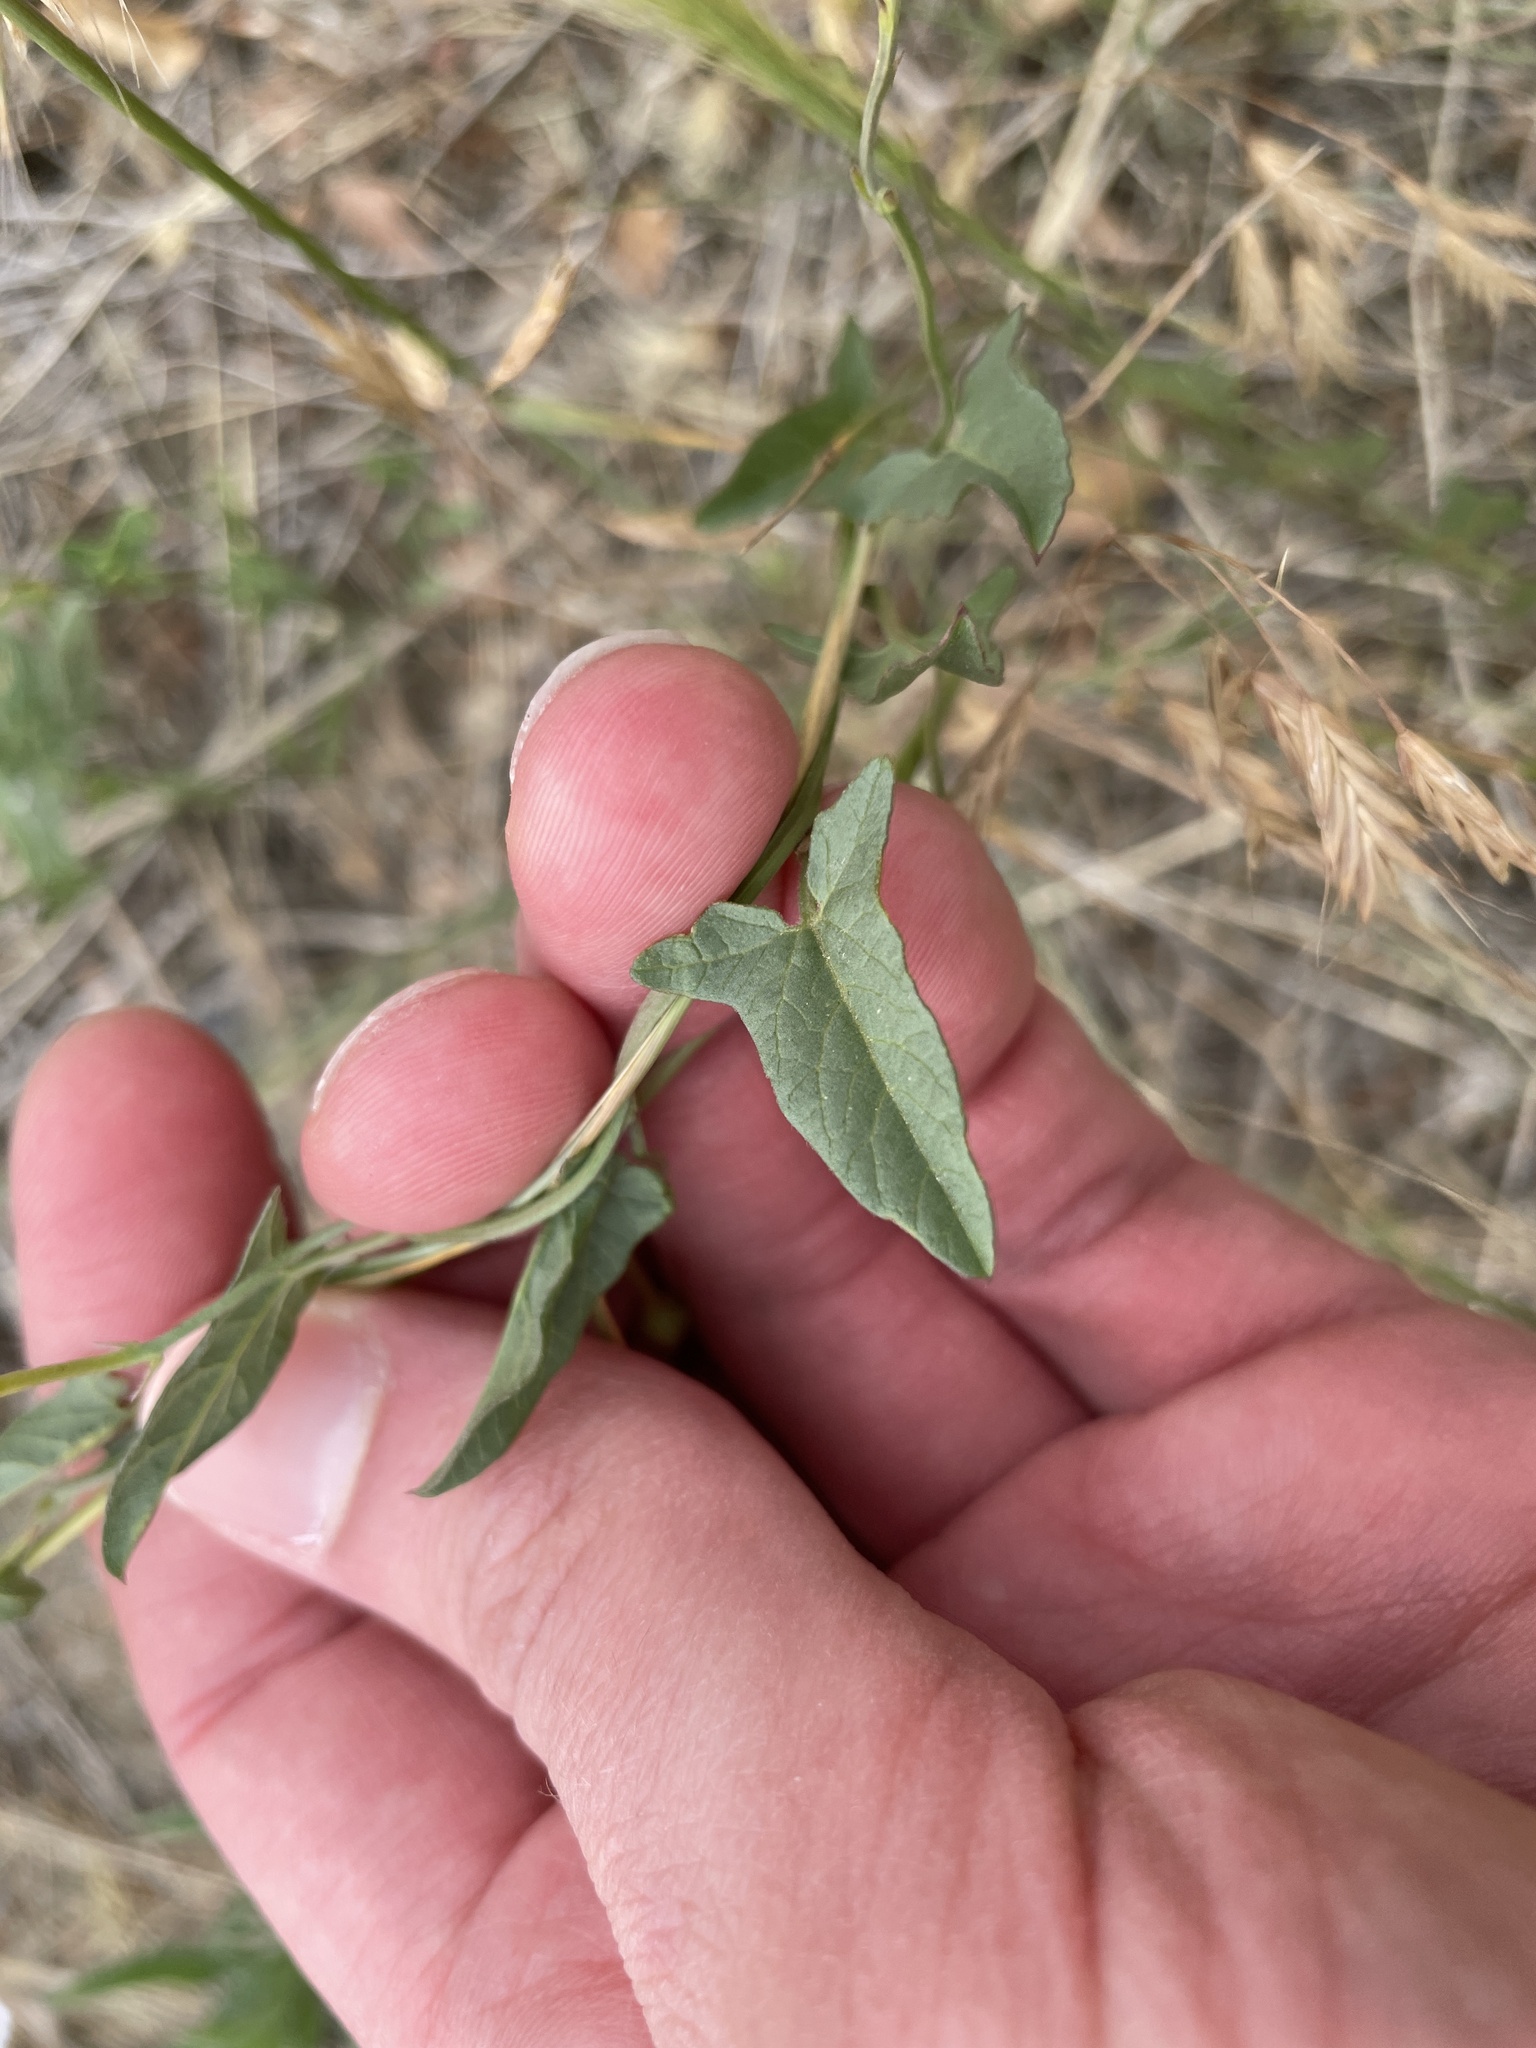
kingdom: Plantae
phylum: Tracheophyta
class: Magnoliopsida
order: Solanales
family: Convolvulaceae
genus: Convolvulus
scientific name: Convolvulus arvensis
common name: Field bindweed
